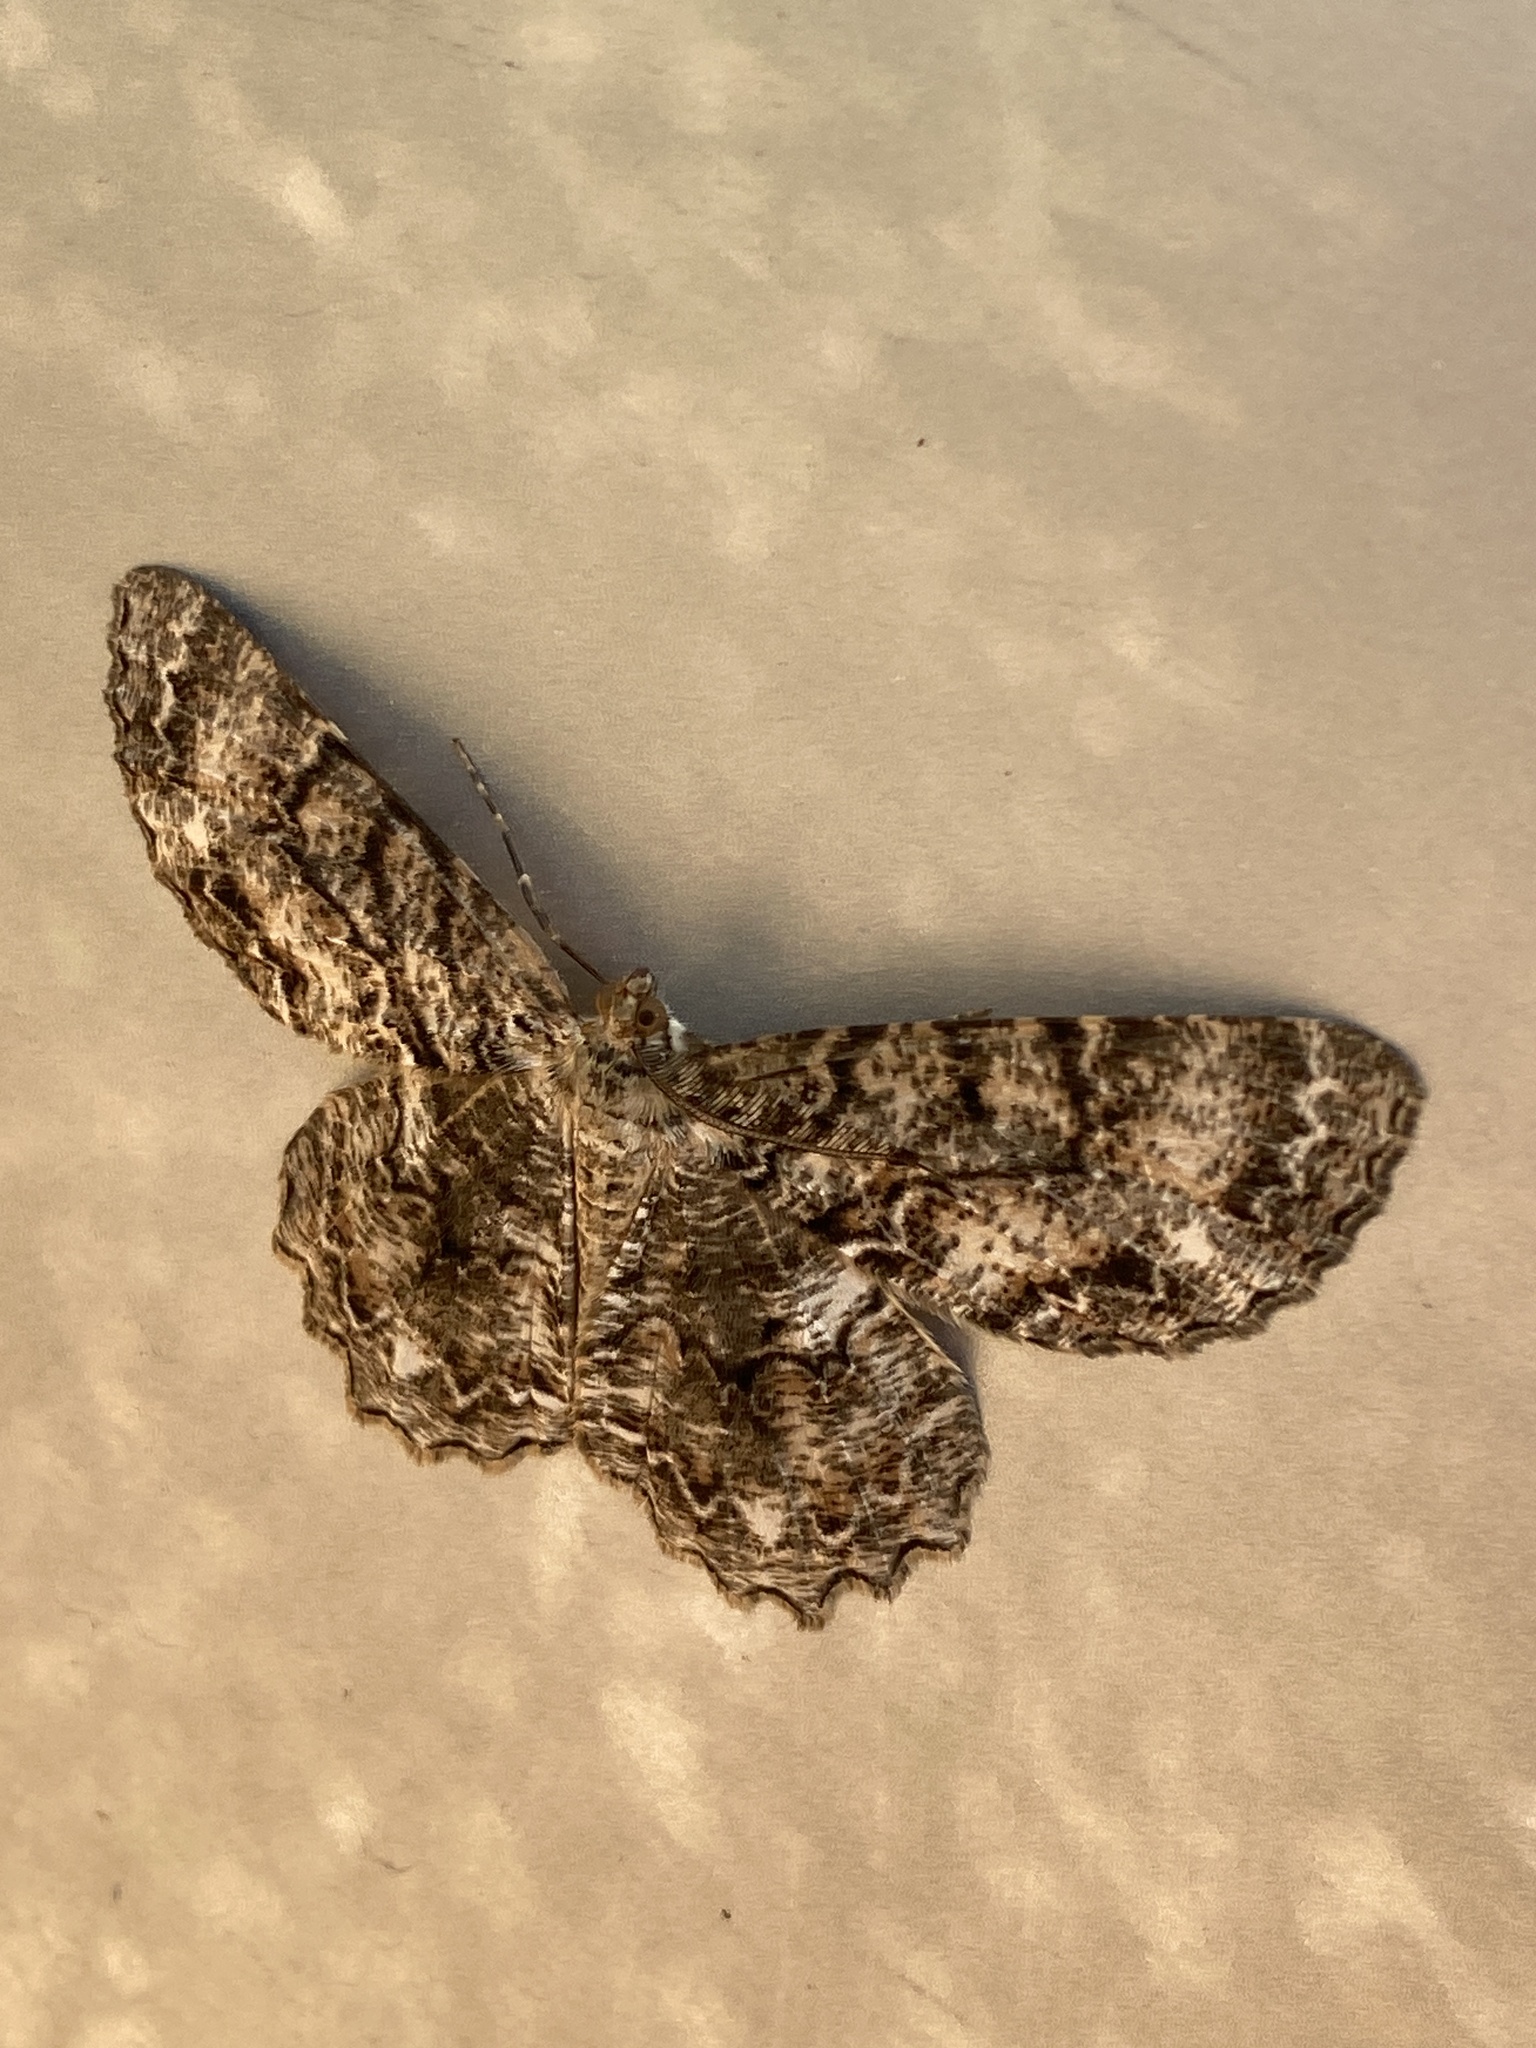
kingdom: Animalia
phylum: Arthropoda
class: Insecta
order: Lepidoptera
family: Geometridae
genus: Epimecis
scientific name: Epimecis hortaria
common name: Tulip-tree beauty
